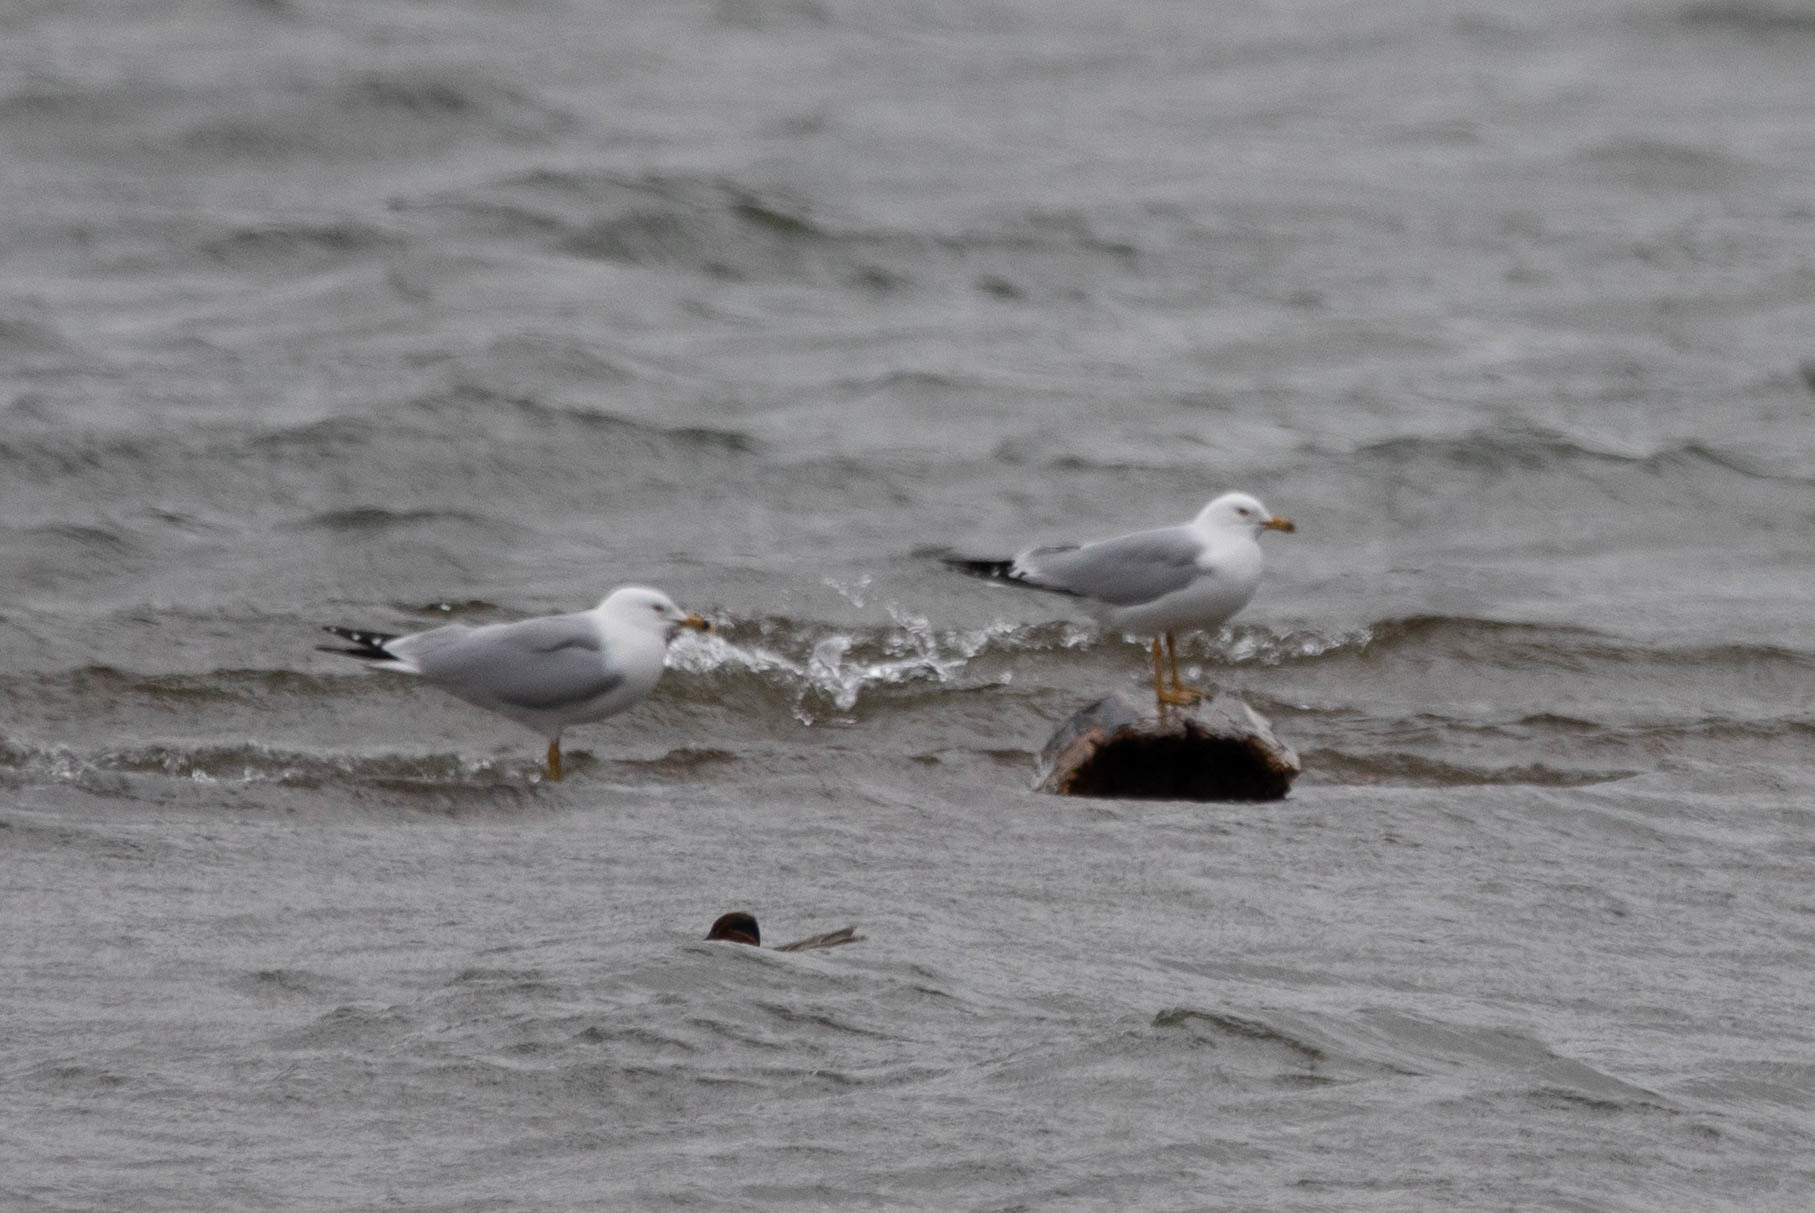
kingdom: Animalia
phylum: Chordata
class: Aves
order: Charadriiformes
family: Laridae
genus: Larus
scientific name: Larus delawarensis
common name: Ring-billed gull
